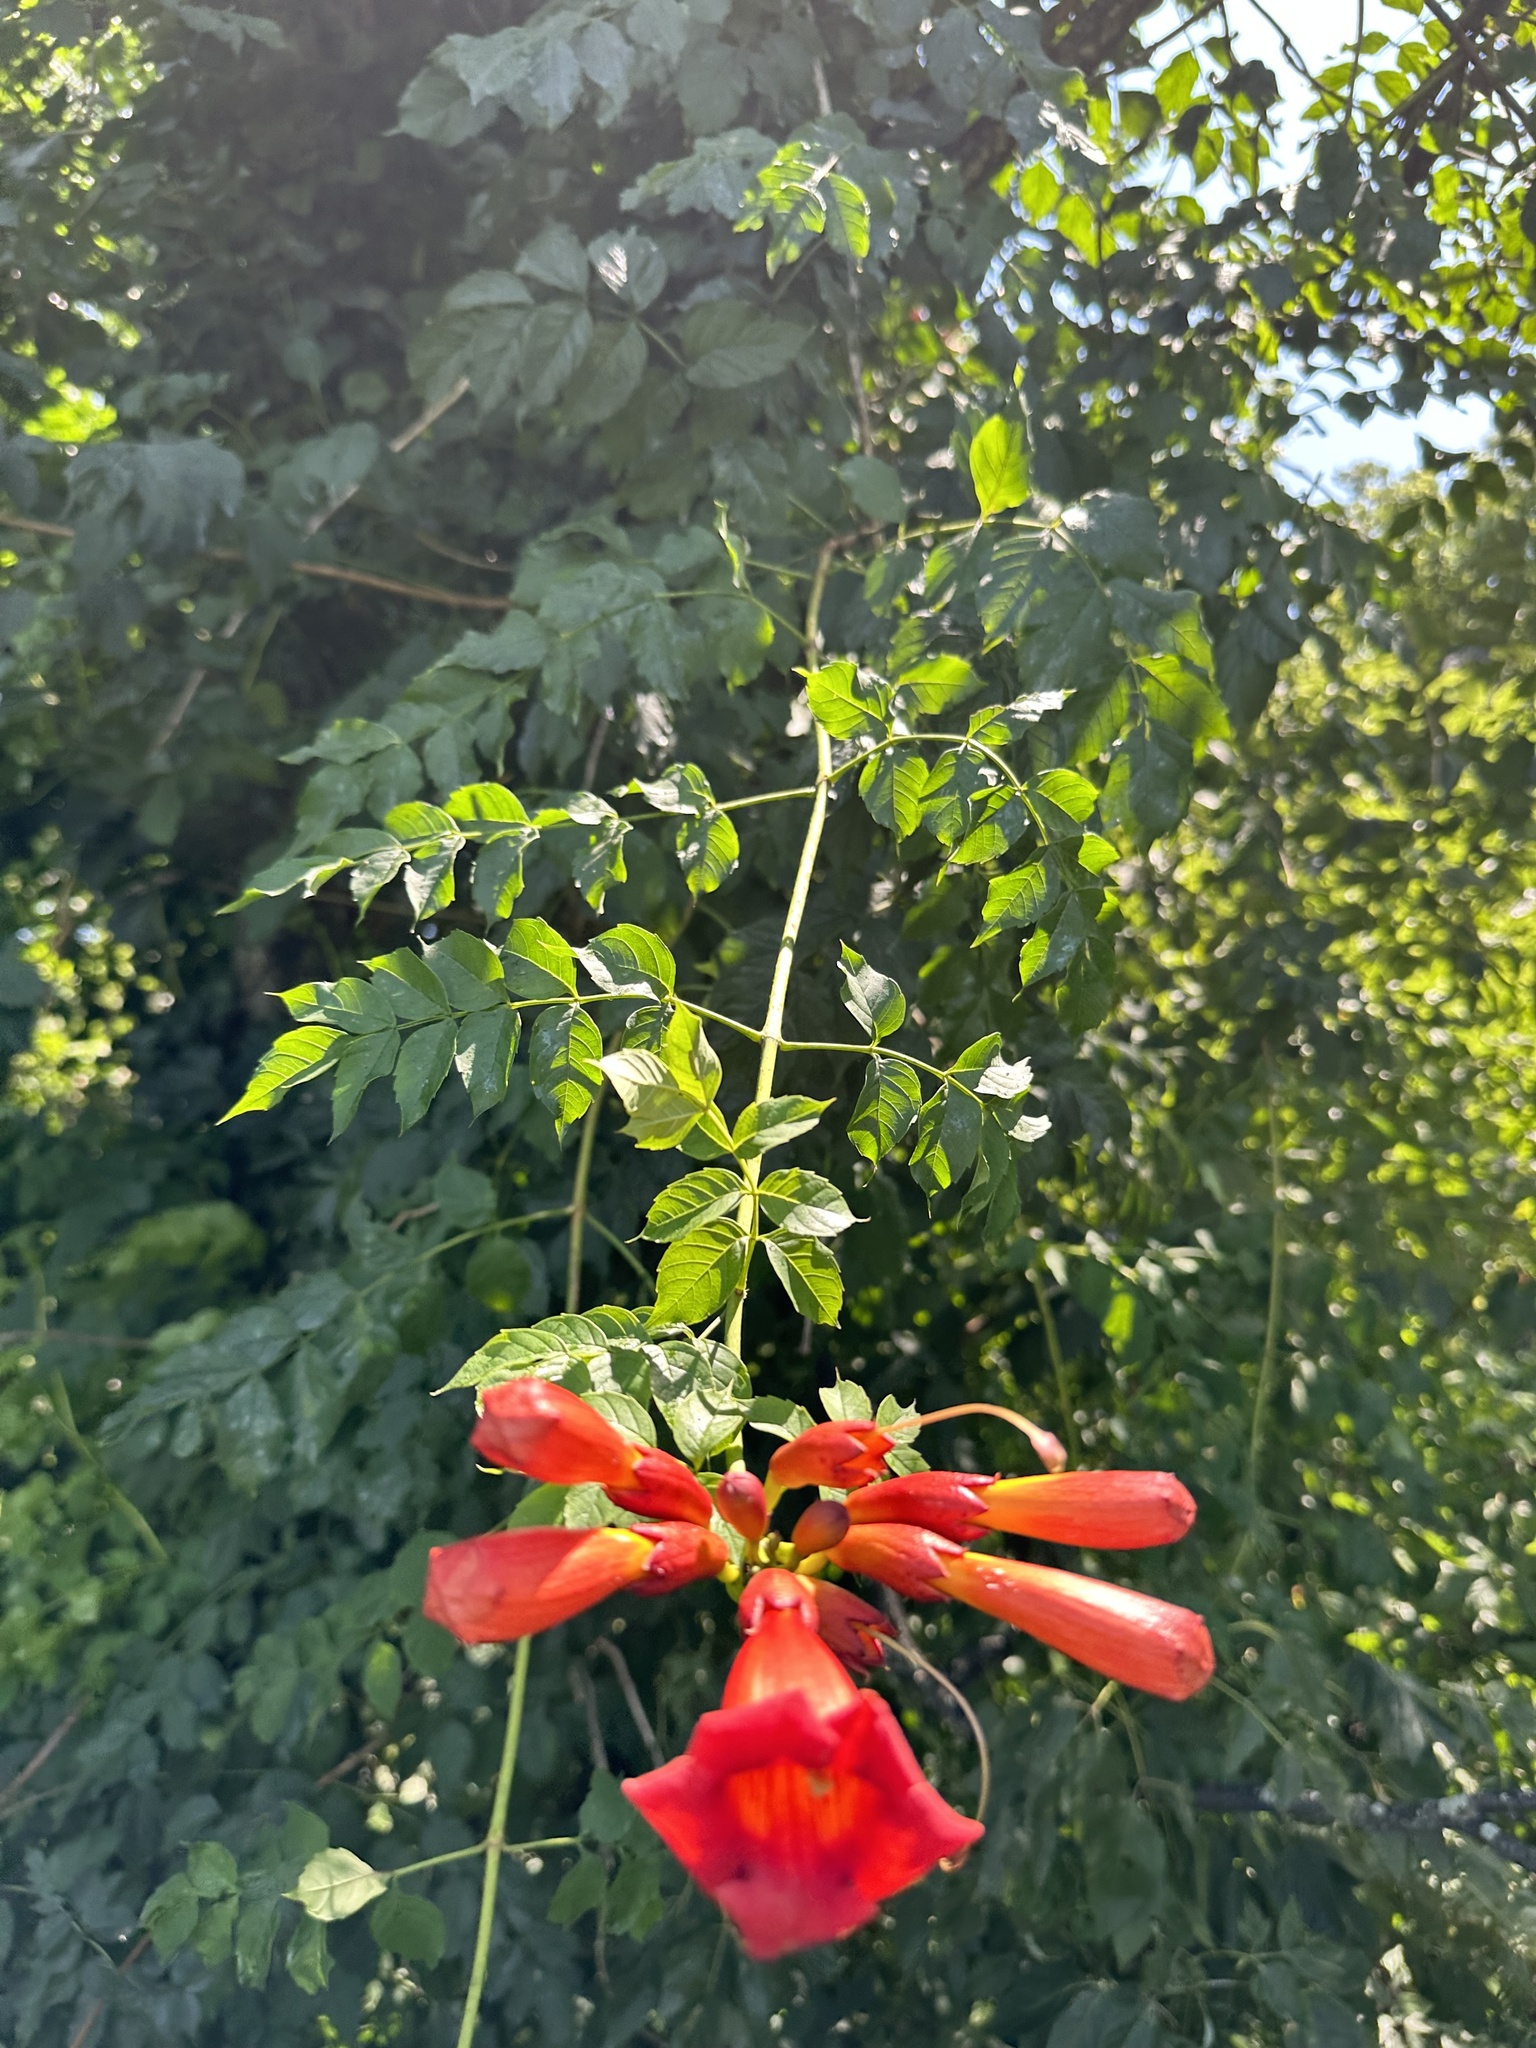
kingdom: Plantae
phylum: Tracheophyta
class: Magnoliopsida
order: Lamiales
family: Bignoniaceae
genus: Campsis
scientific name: Campsis radicans
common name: Trumpet-creeper
